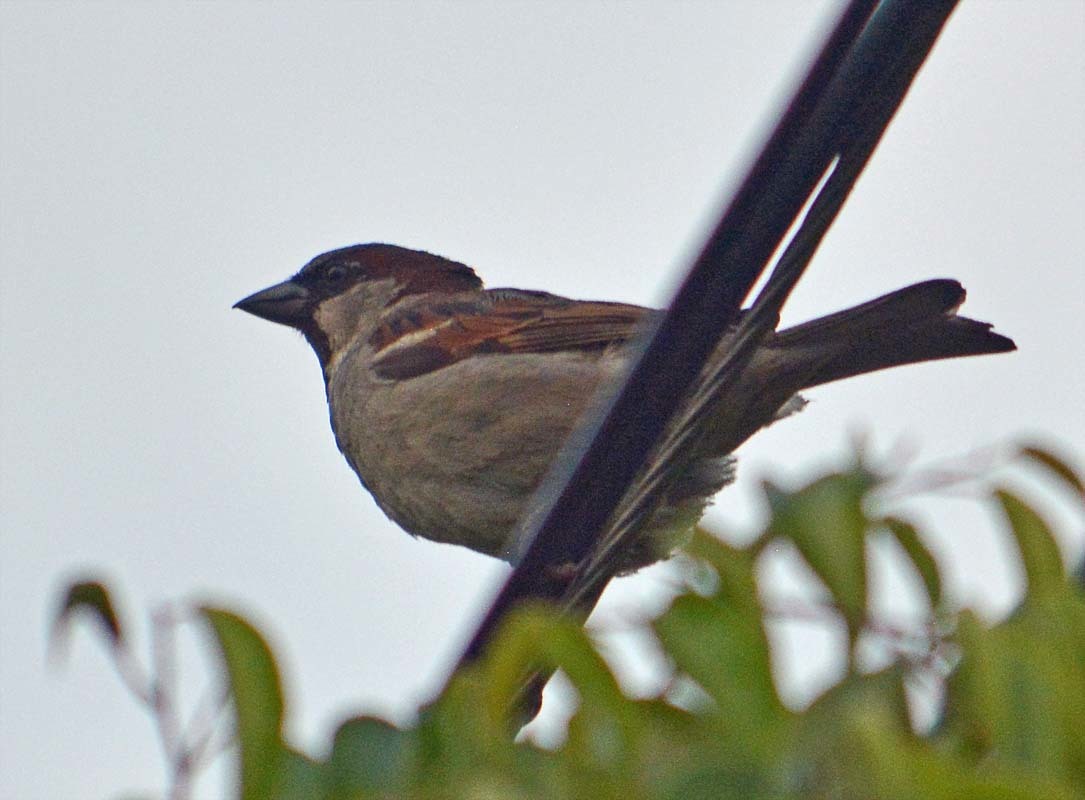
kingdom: Animalia
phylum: Chordata
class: Aves
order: Passeriformes
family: Passeridae
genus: Passer
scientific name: Passer domesticus
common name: House sparrow
